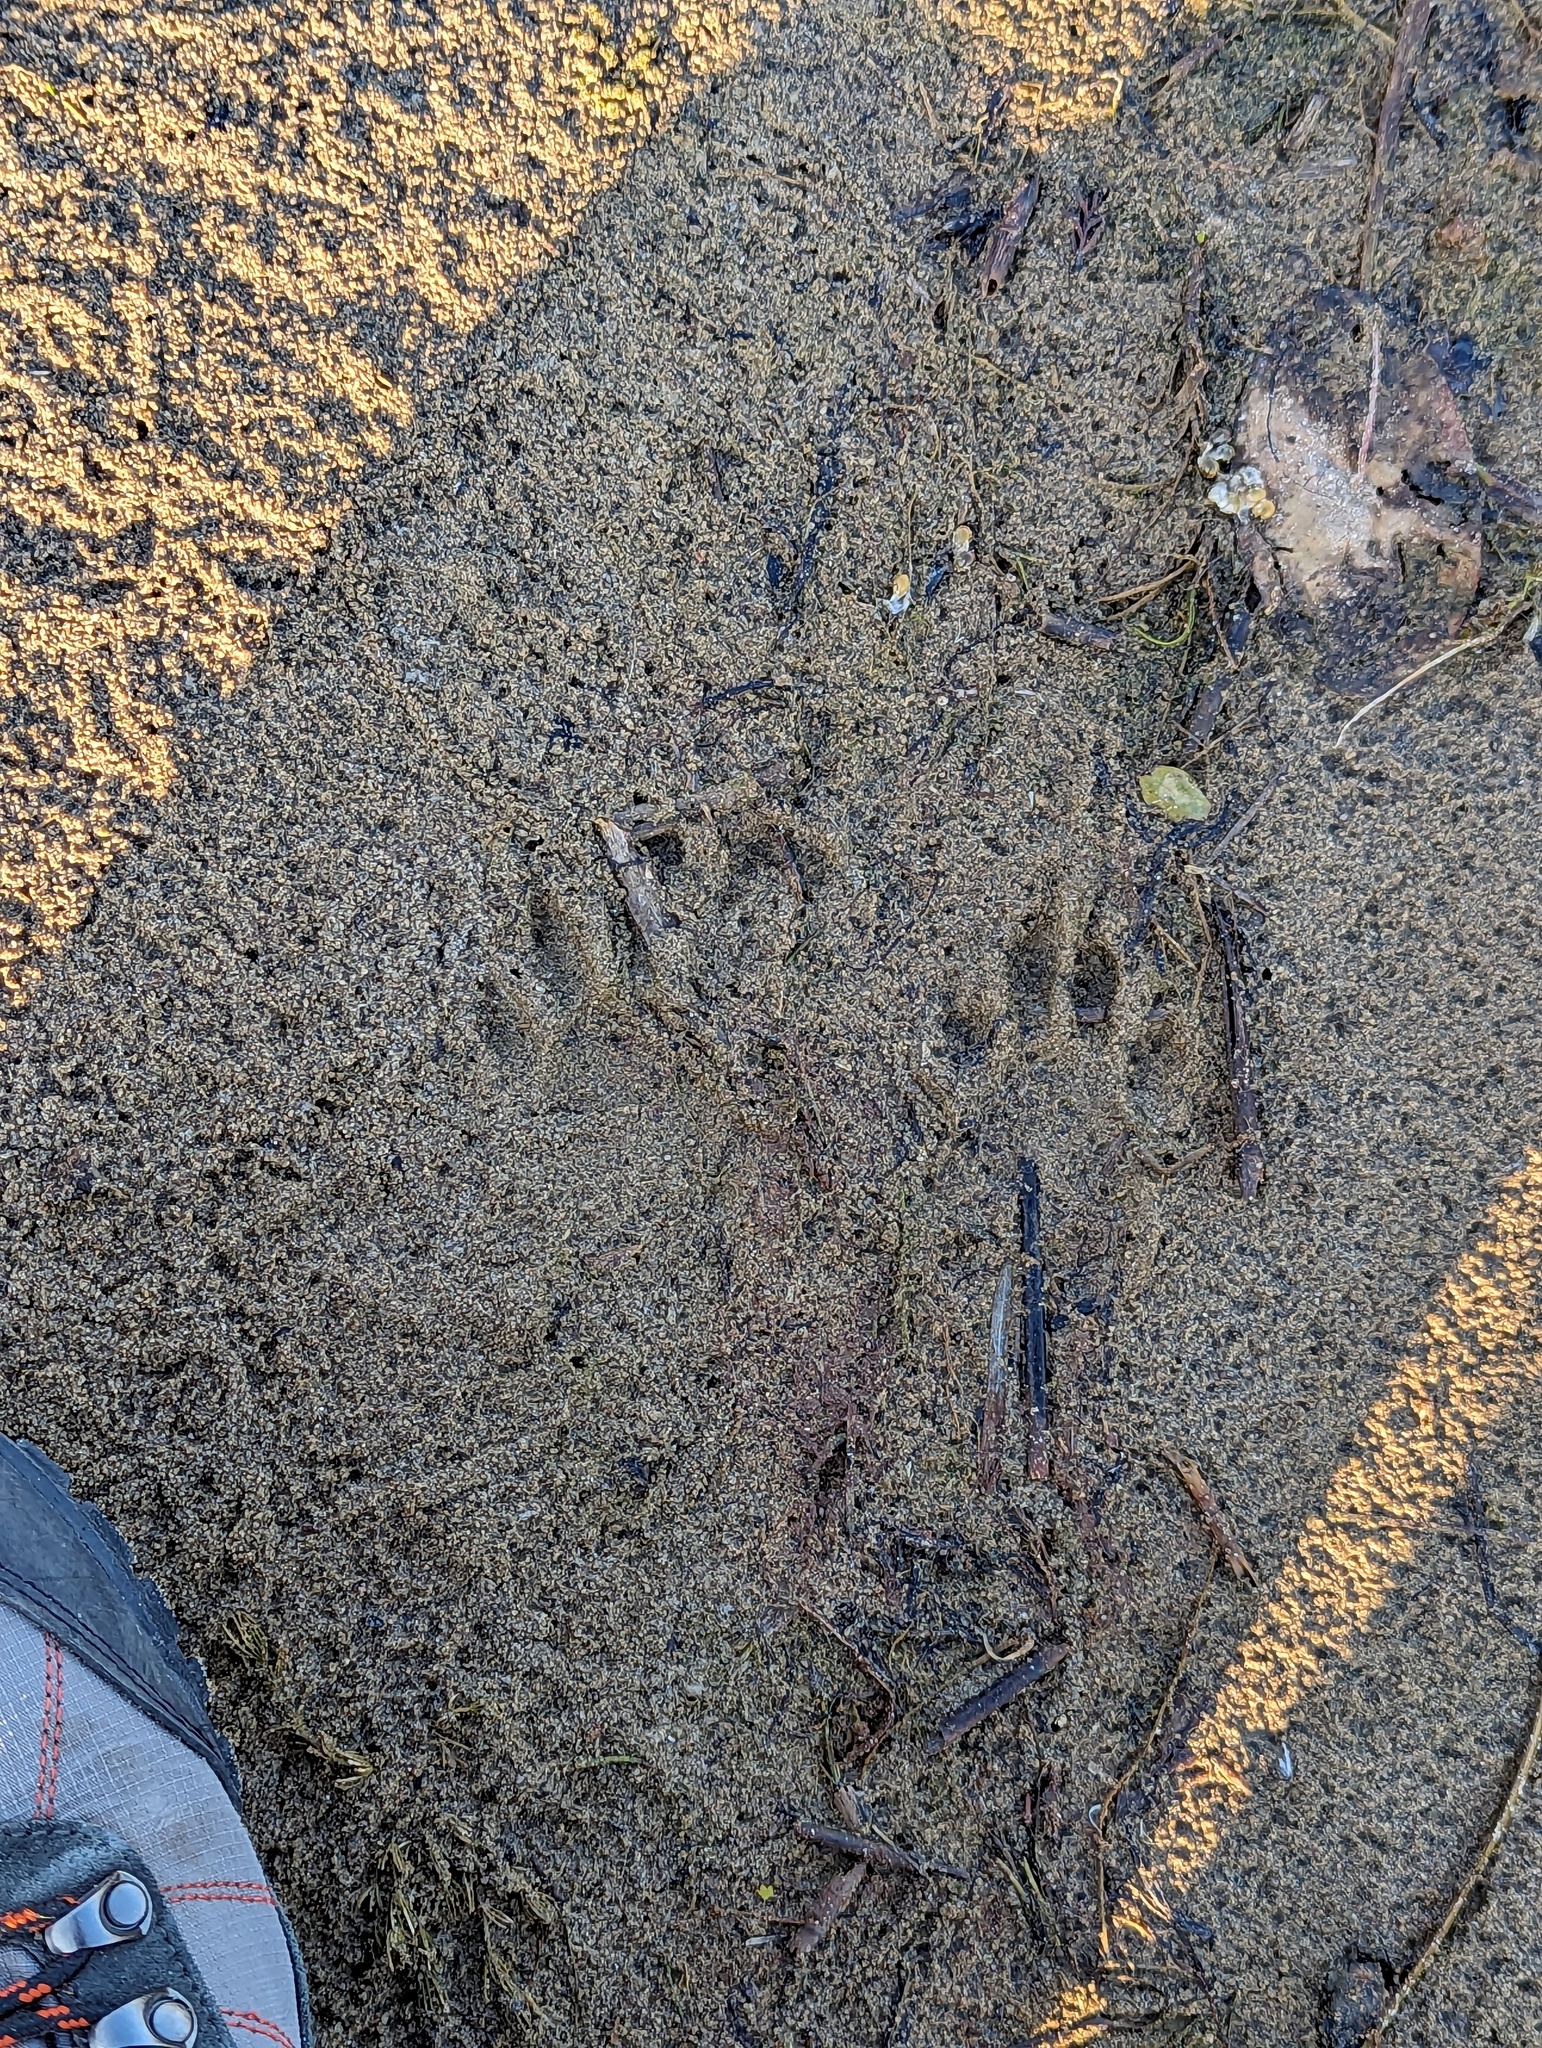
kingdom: Animalia
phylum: Chordata
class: Mammalia
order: Carnivora
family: Procyonidae
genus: Procyon
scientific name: Procyon lotor
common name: Raccoon
